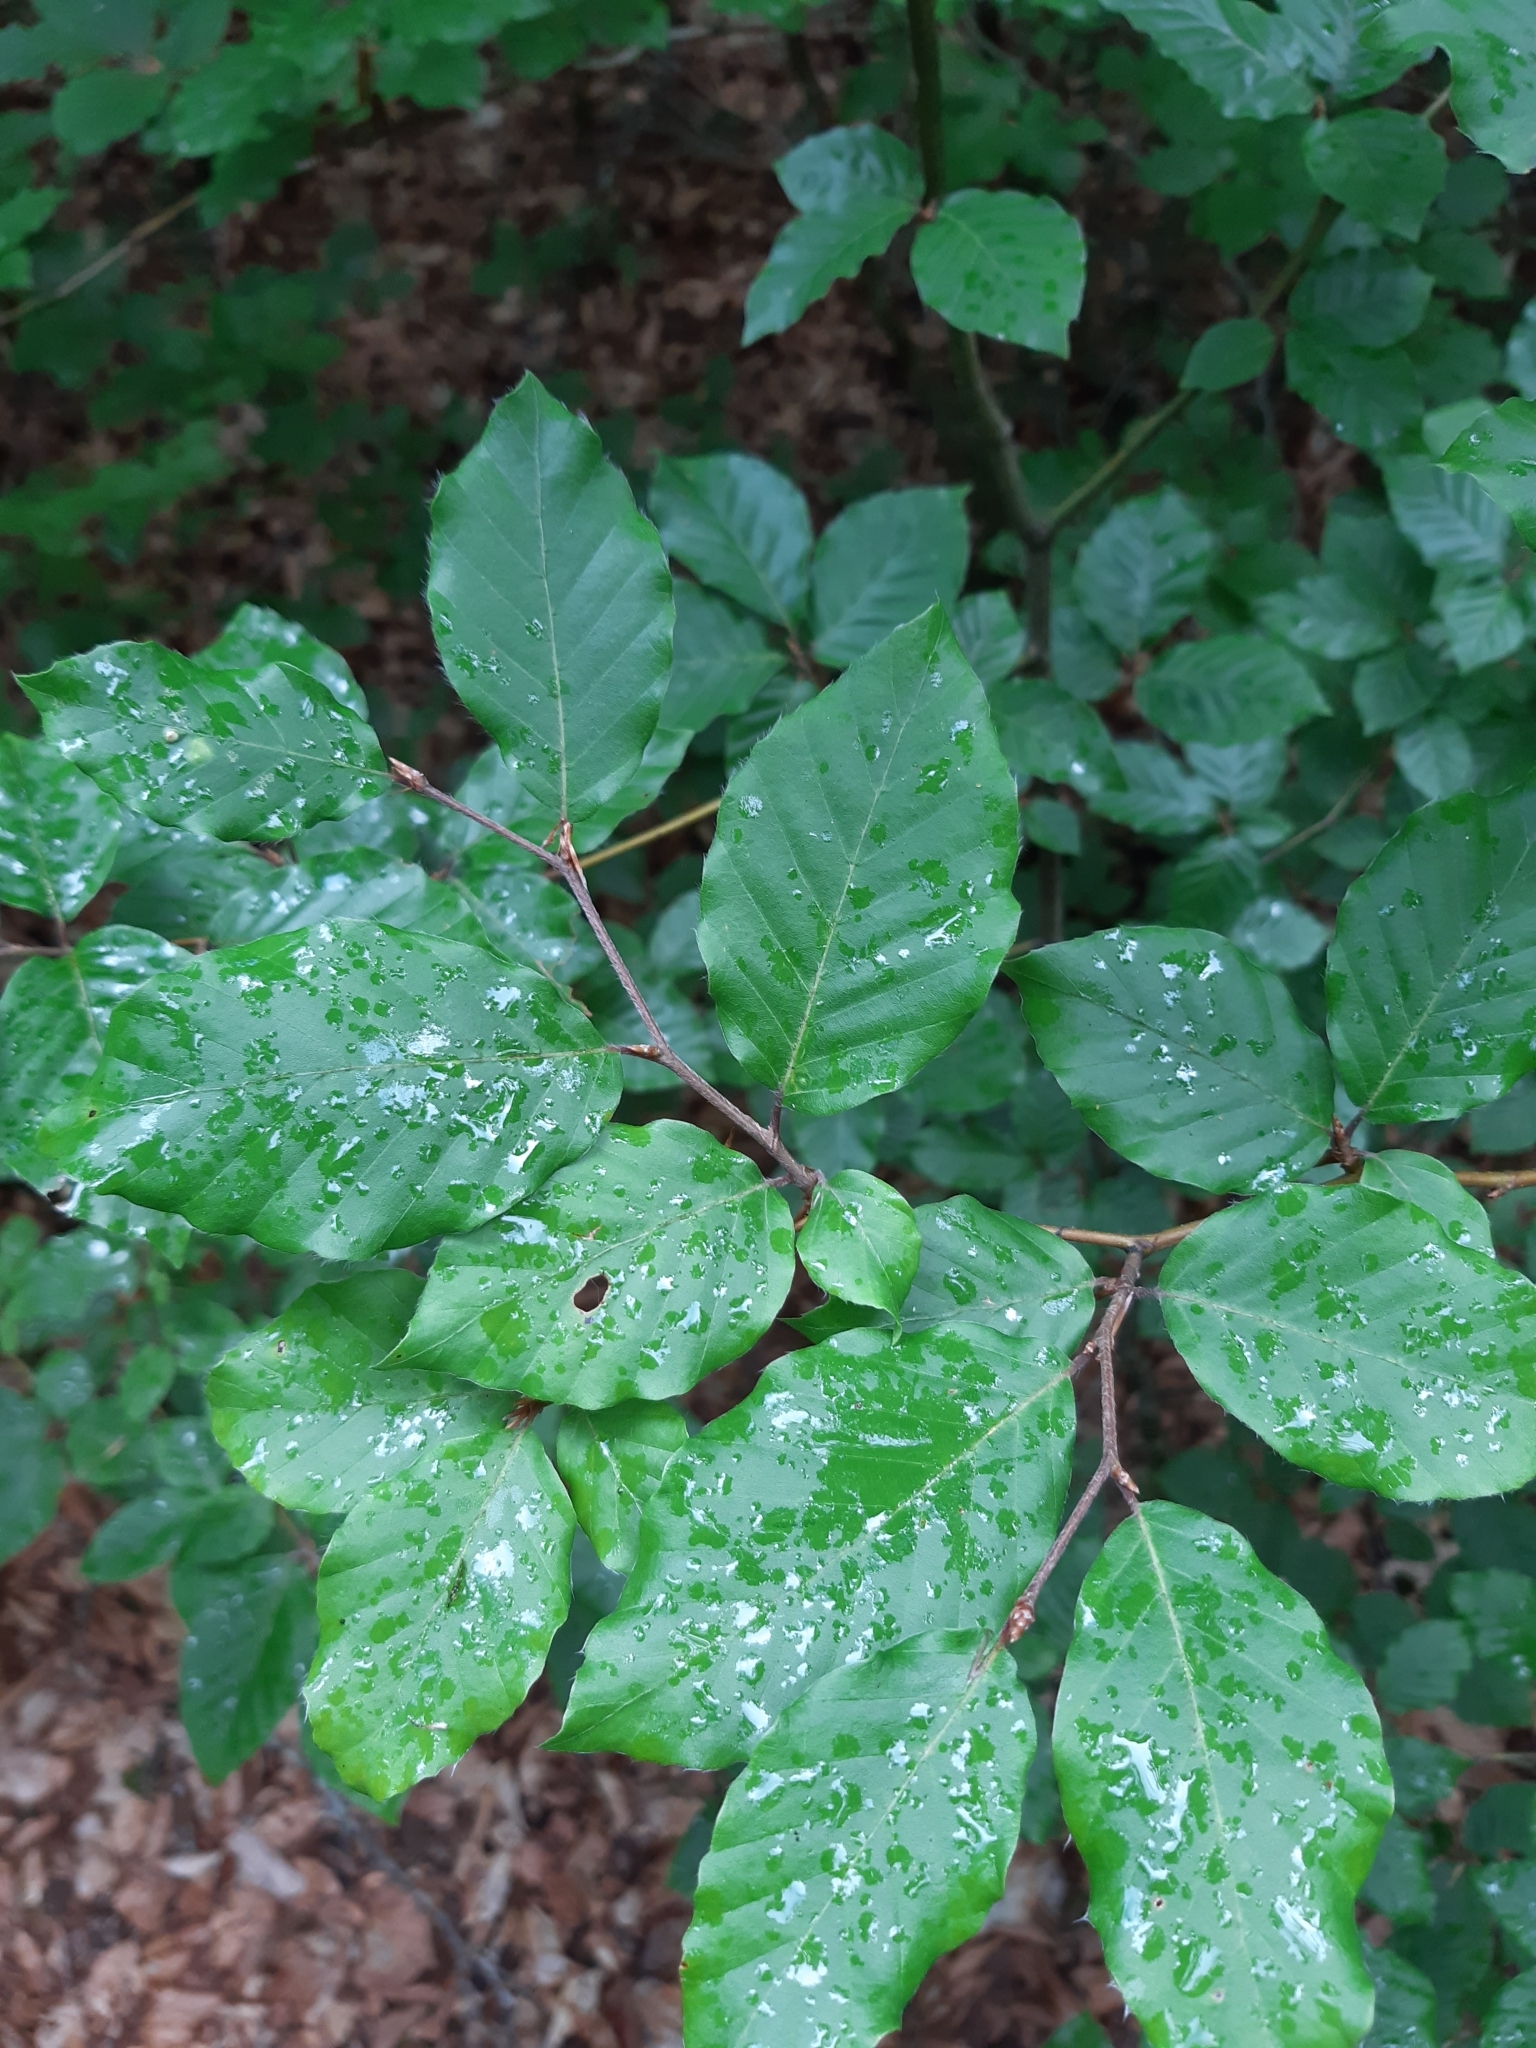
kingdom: Plantae
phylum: Tracheophyta
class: Magnoliopsida
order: Fagales
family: Fagaceae
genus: Fagus
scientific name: Fagus sylvatica
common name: Beech
